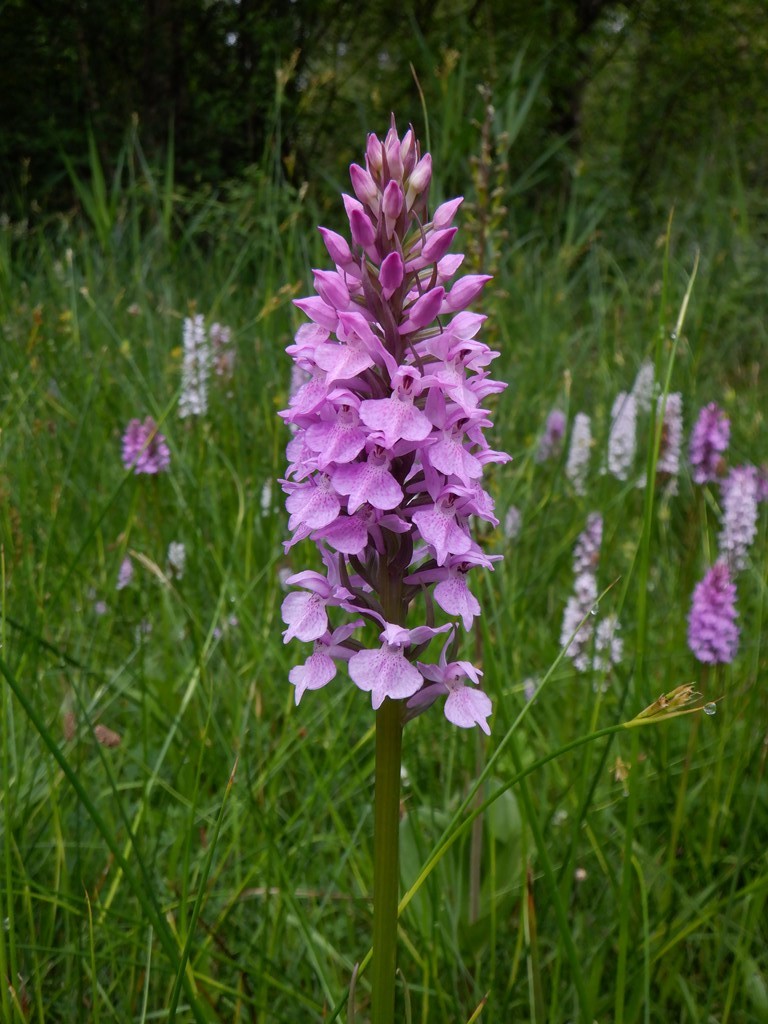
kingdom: Plantae
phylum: Tracheophyta
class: Liliopsida
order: Asparagales
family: Orchidaceae
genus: Dactylorhiza
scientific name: Dactylorhiza majalis
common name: Marsh orchid
